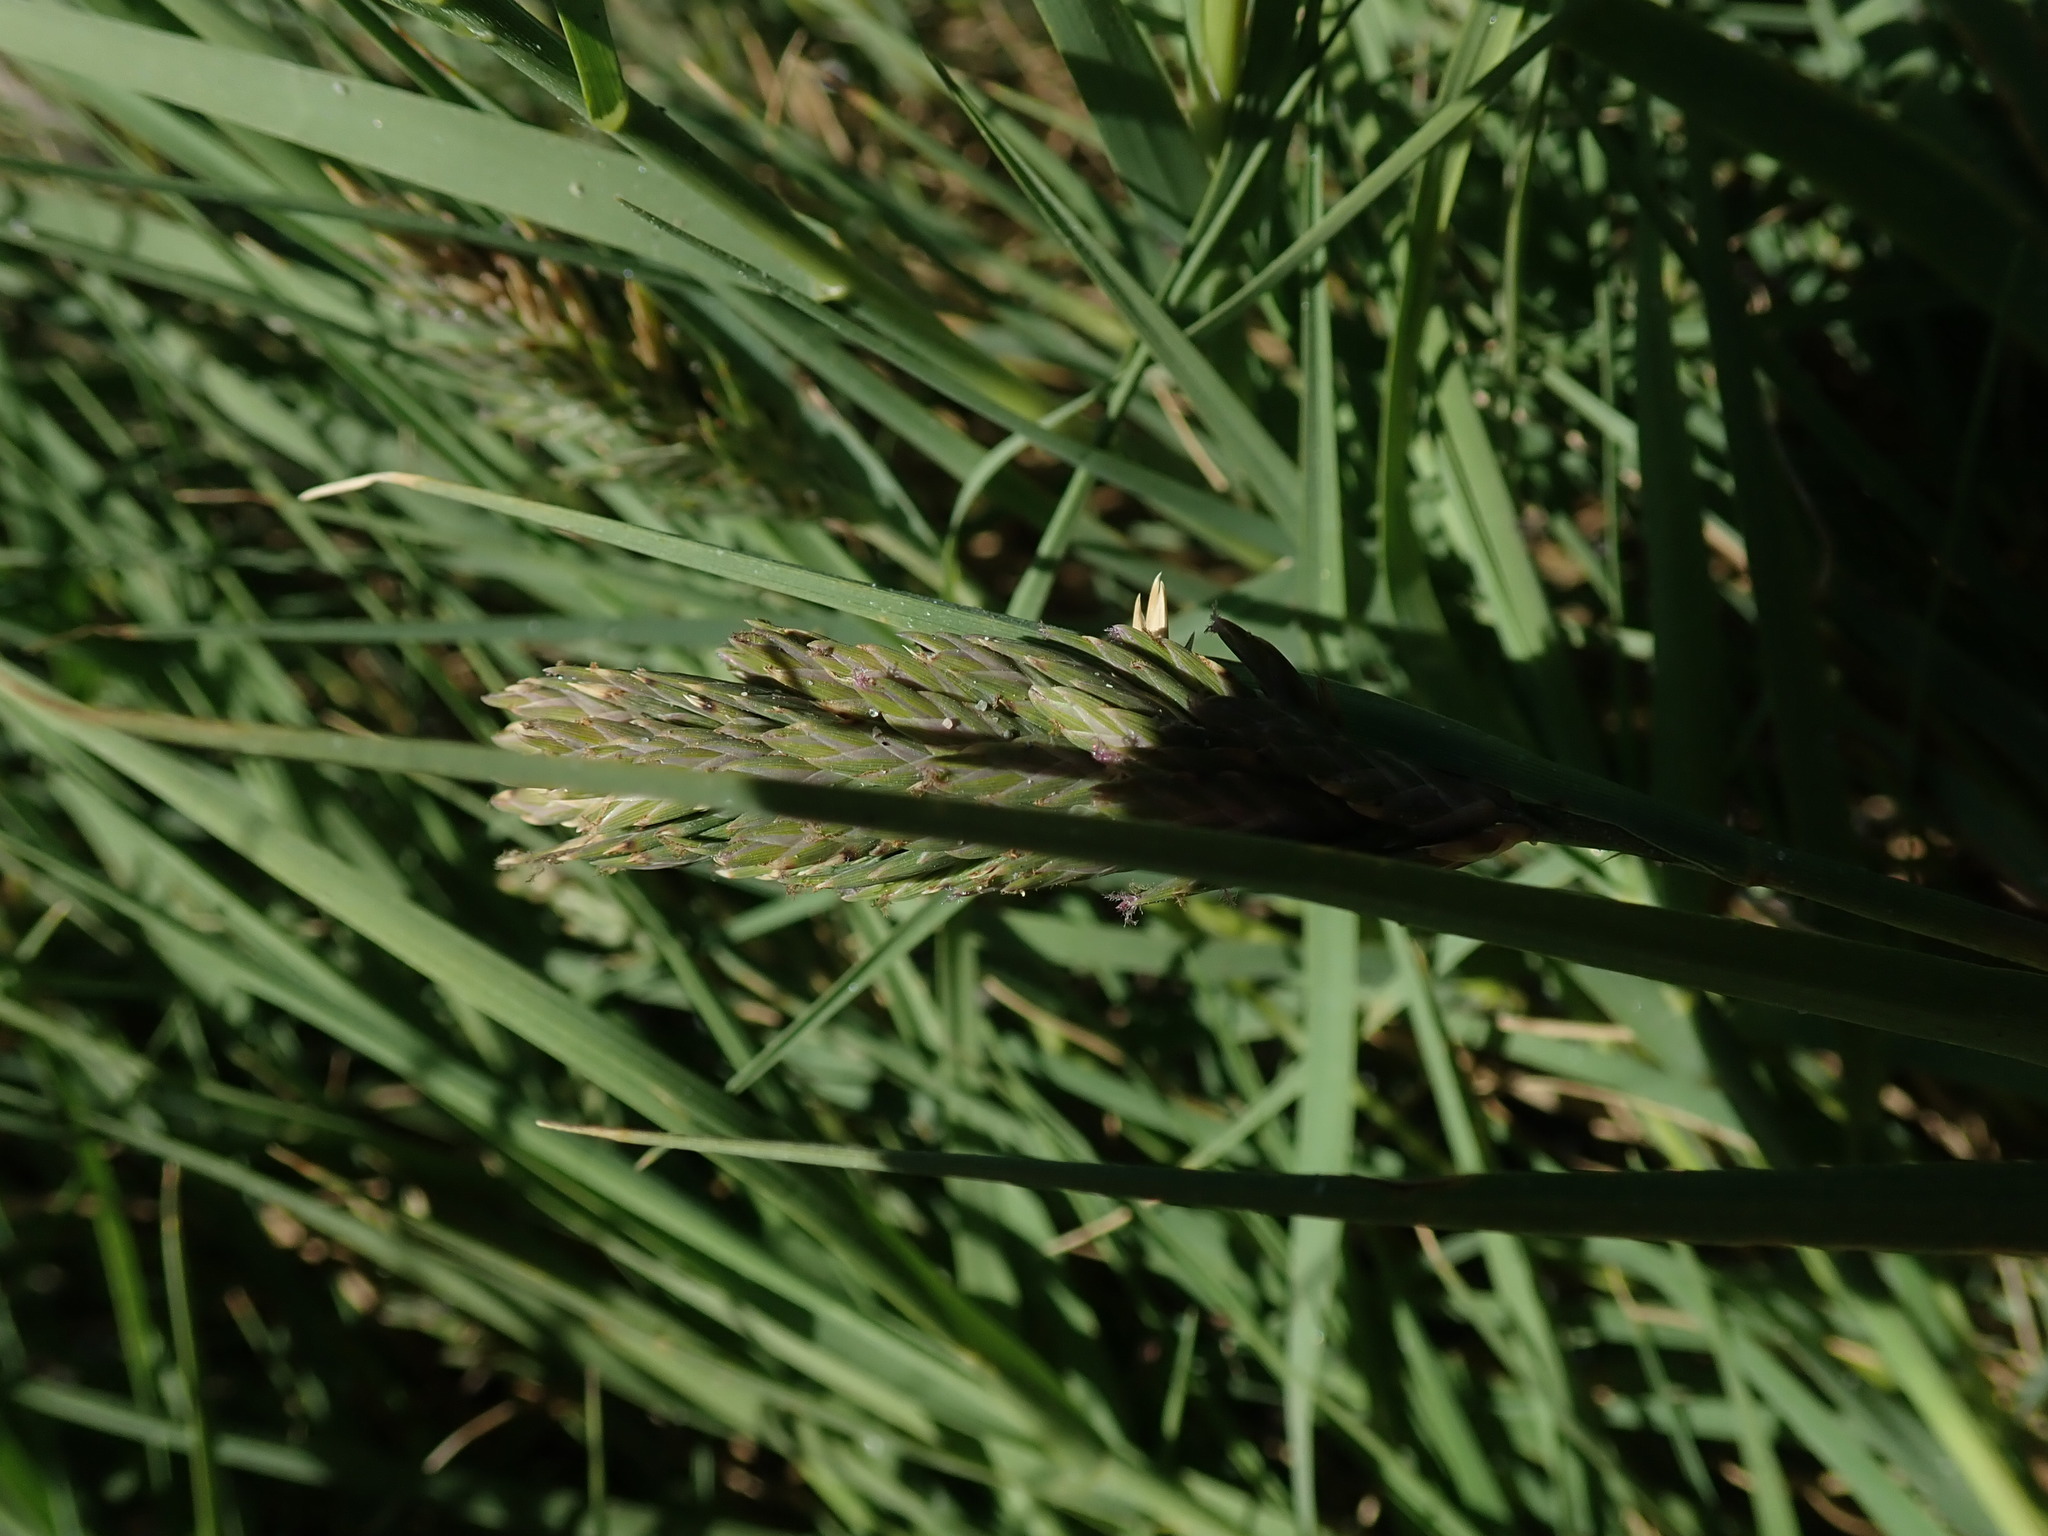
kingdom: Plantae
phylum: Tracheophyta
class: Liliopsida
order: Poales
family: Poaceae
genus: Distichlis
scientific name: Distichlis spicata
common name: Saltgrass
